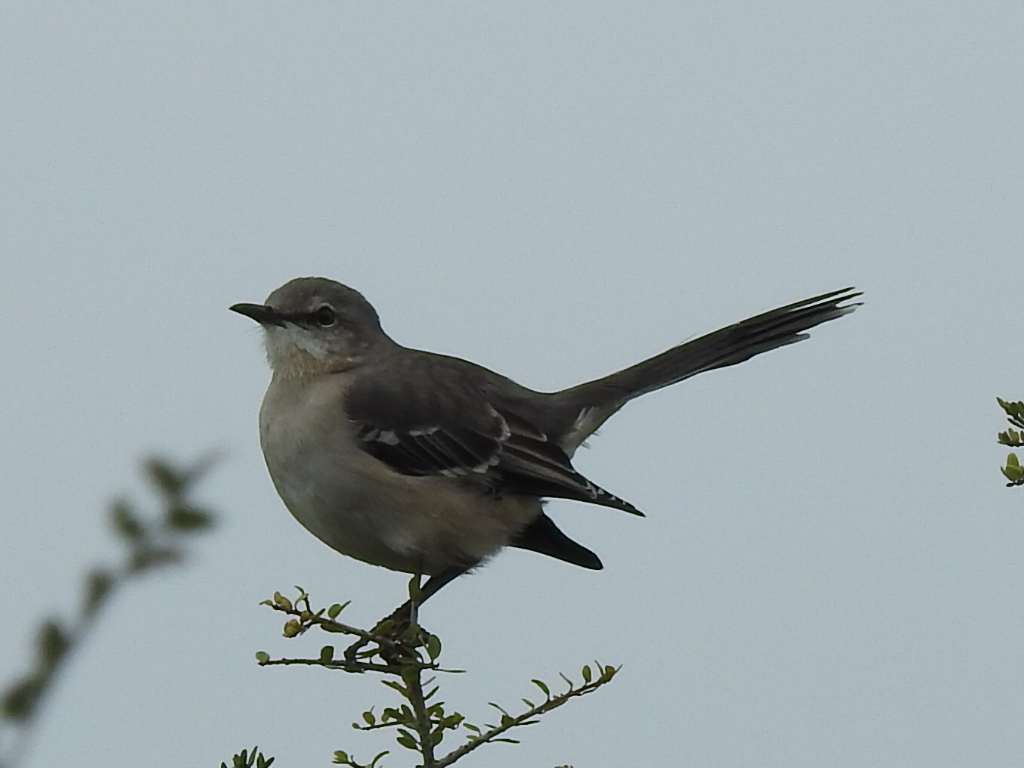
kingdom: Animalia
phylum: Chordata
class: Aves
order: Passeriformes
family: Mimidae
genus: Mimus
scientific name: Mimus polyglottos
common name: Northern mockingbird
